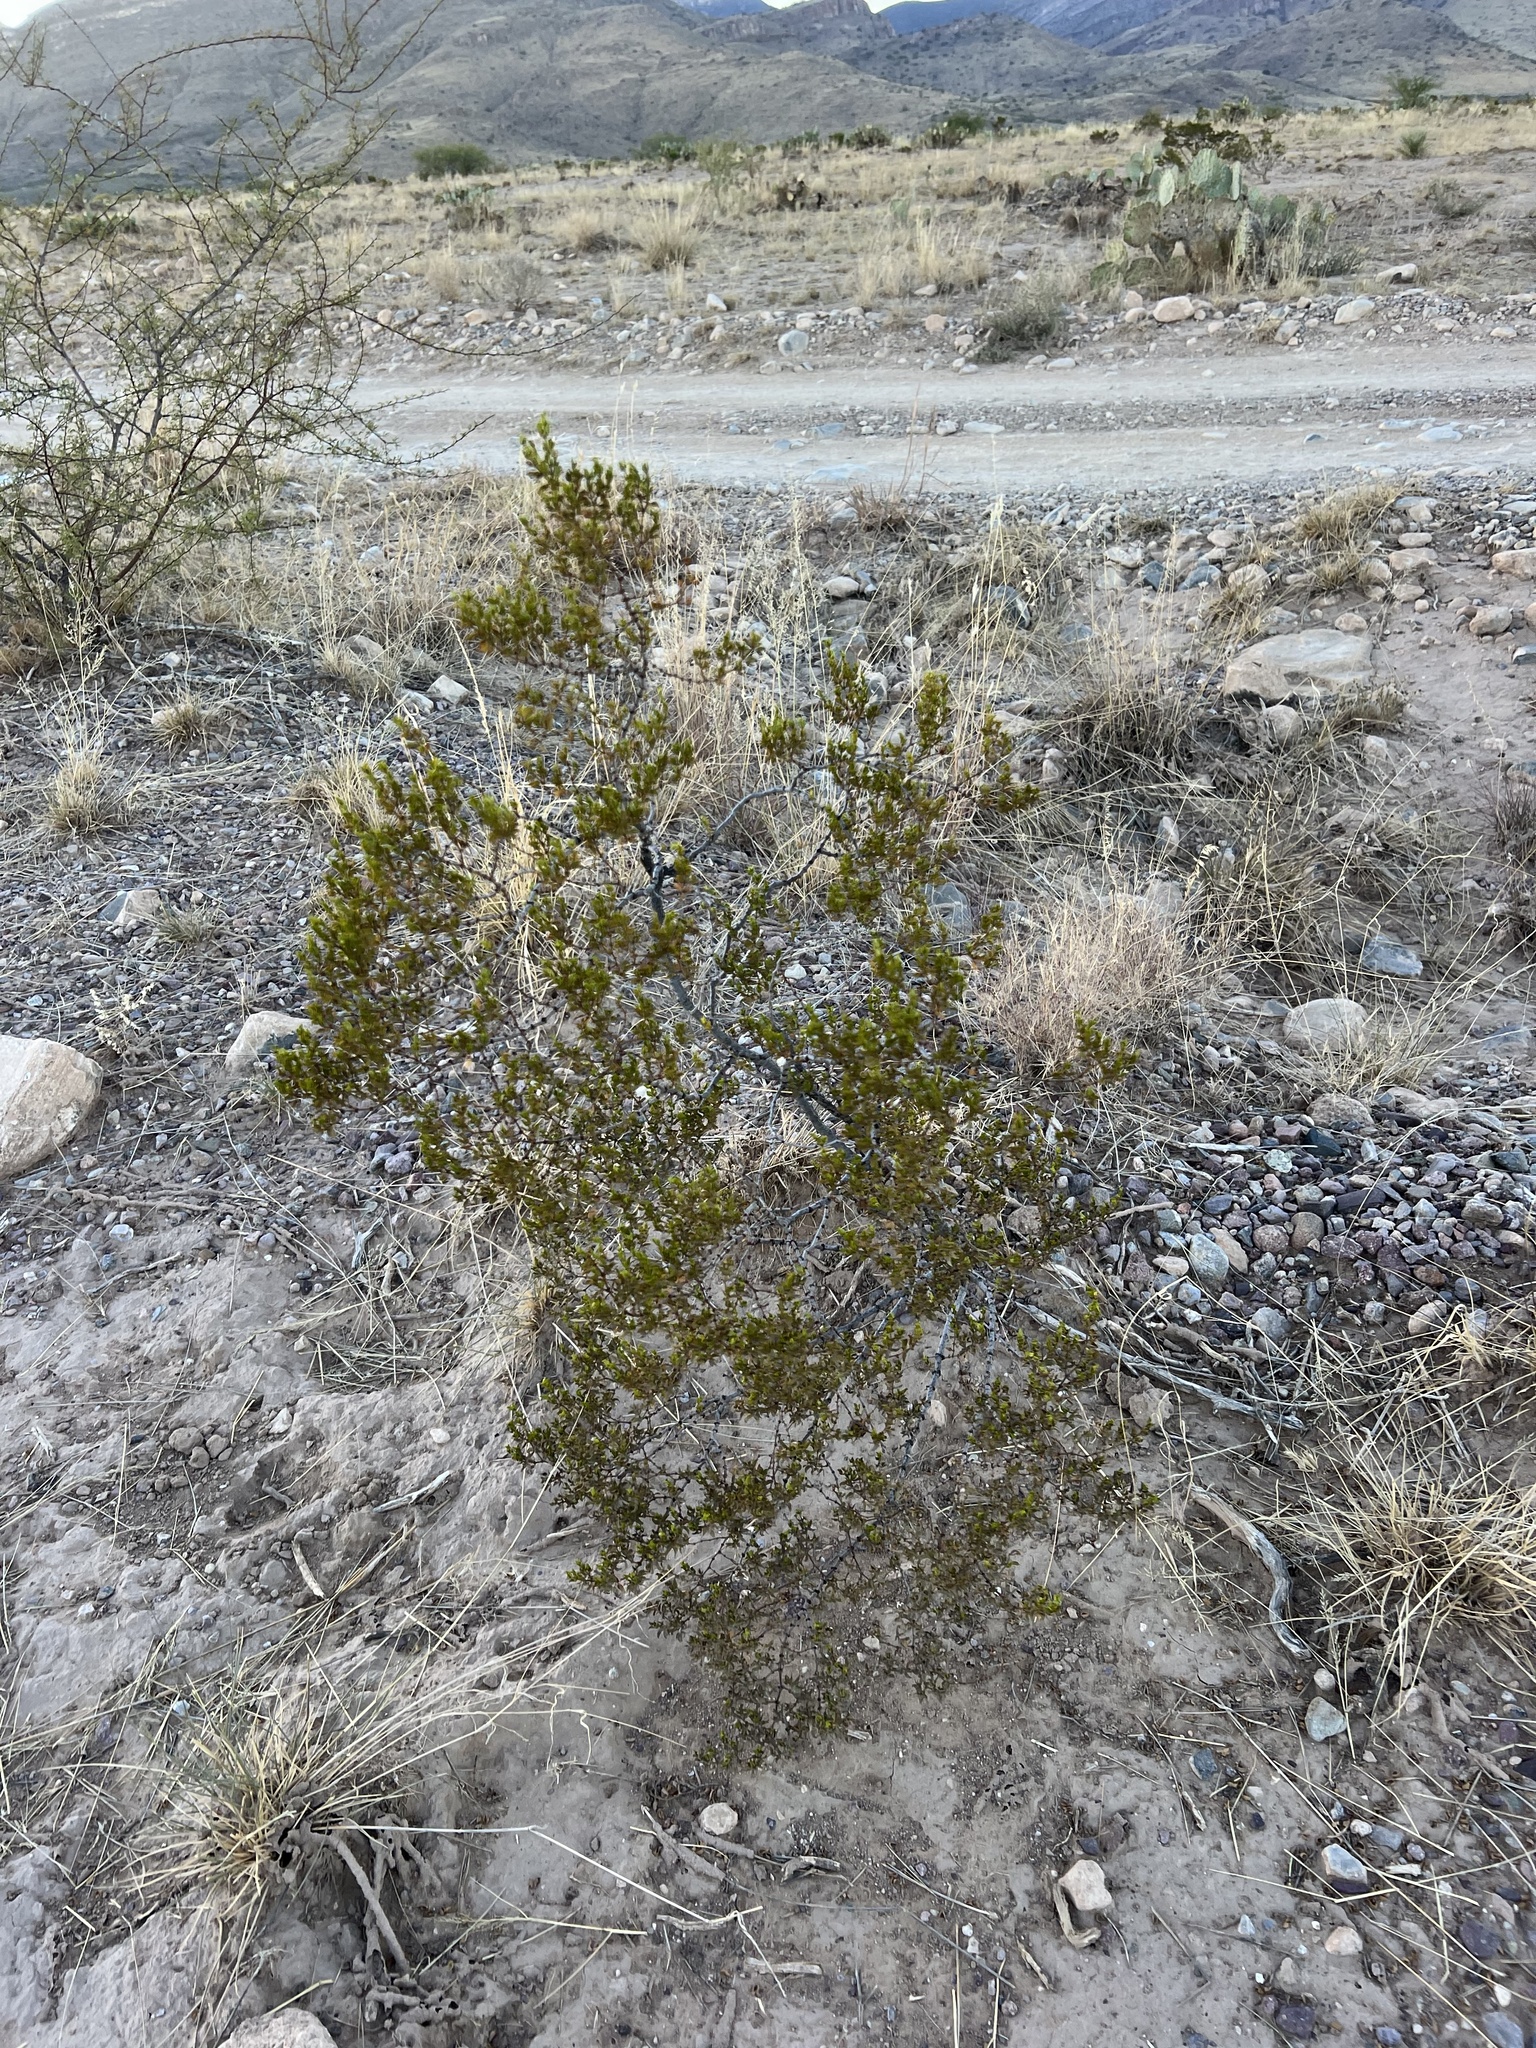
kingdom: Plantae
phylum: Tracheophyta
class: Magnoliopsida
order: Zygophyllales
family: Zygophyllaceae
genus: Larrea
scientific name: Larrea tridentata
